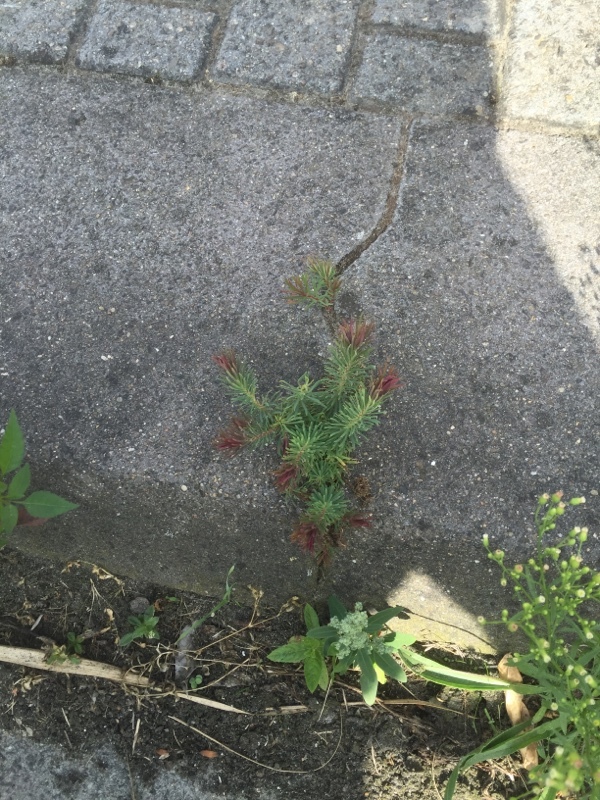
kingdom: Plantae
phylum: Tracheophyta
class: Magnoliopsida
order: Malpighiales
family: Euphorbiaceae
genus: Euphorbia
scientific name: Euphorbia cyparissias
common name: Cypress spurge
